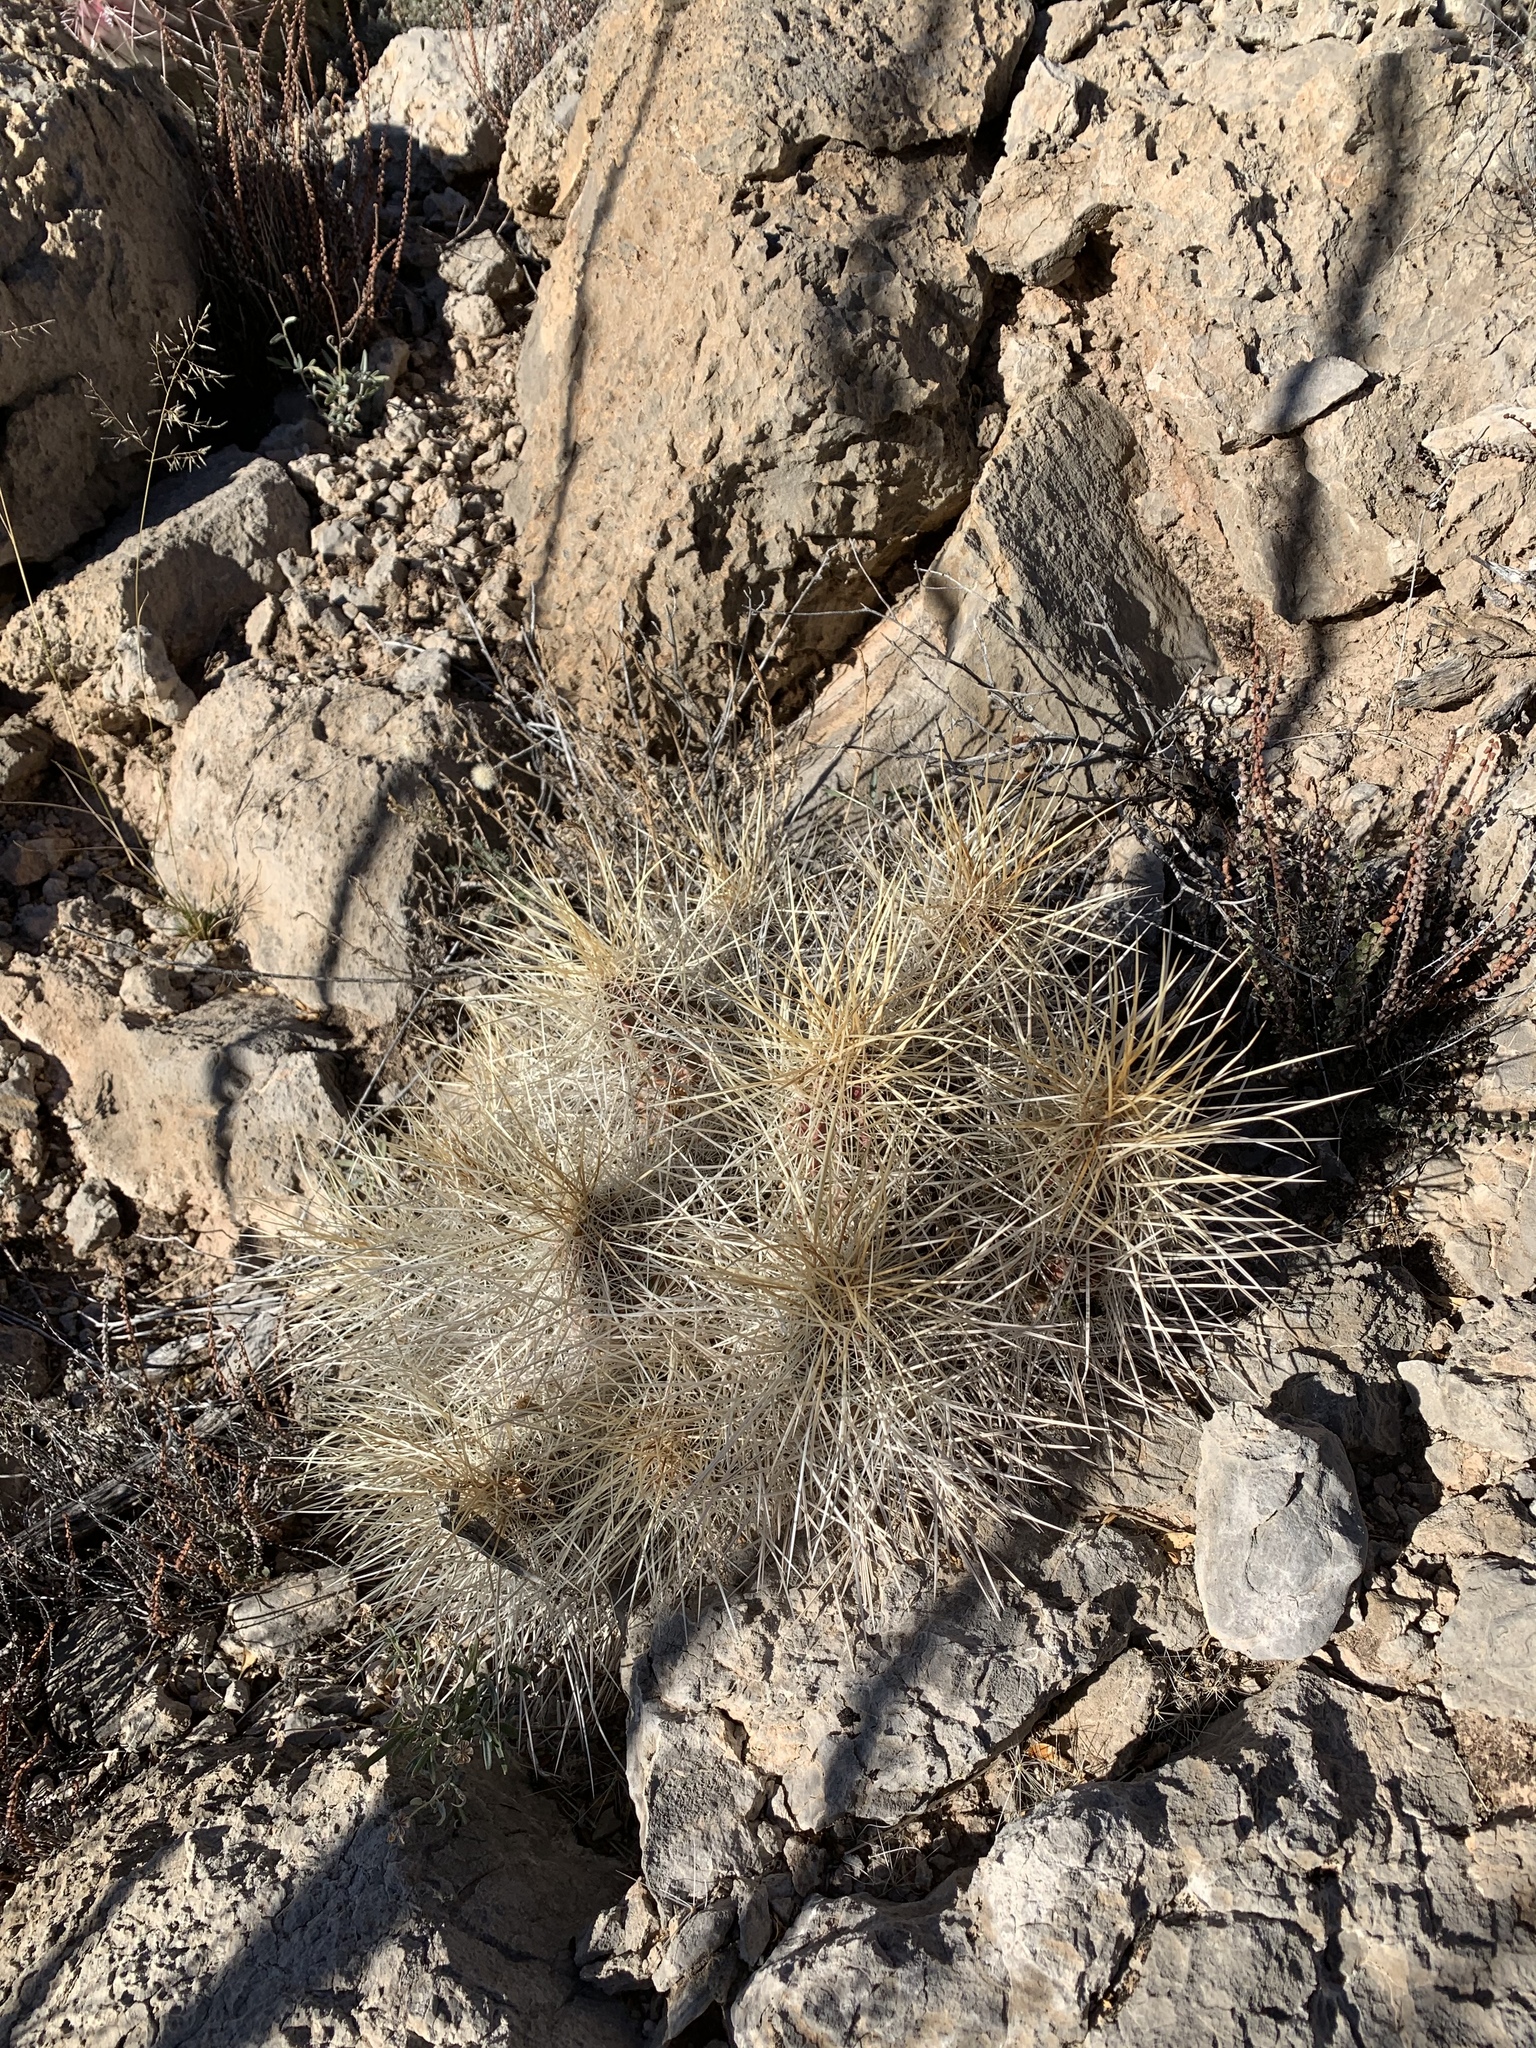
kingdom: Plantae
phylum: Tracheophyta
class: Magnoliopsida
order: Caryophyllales
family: Cactaceae
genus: Echinocereus
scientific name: Echinocereus stramineus
